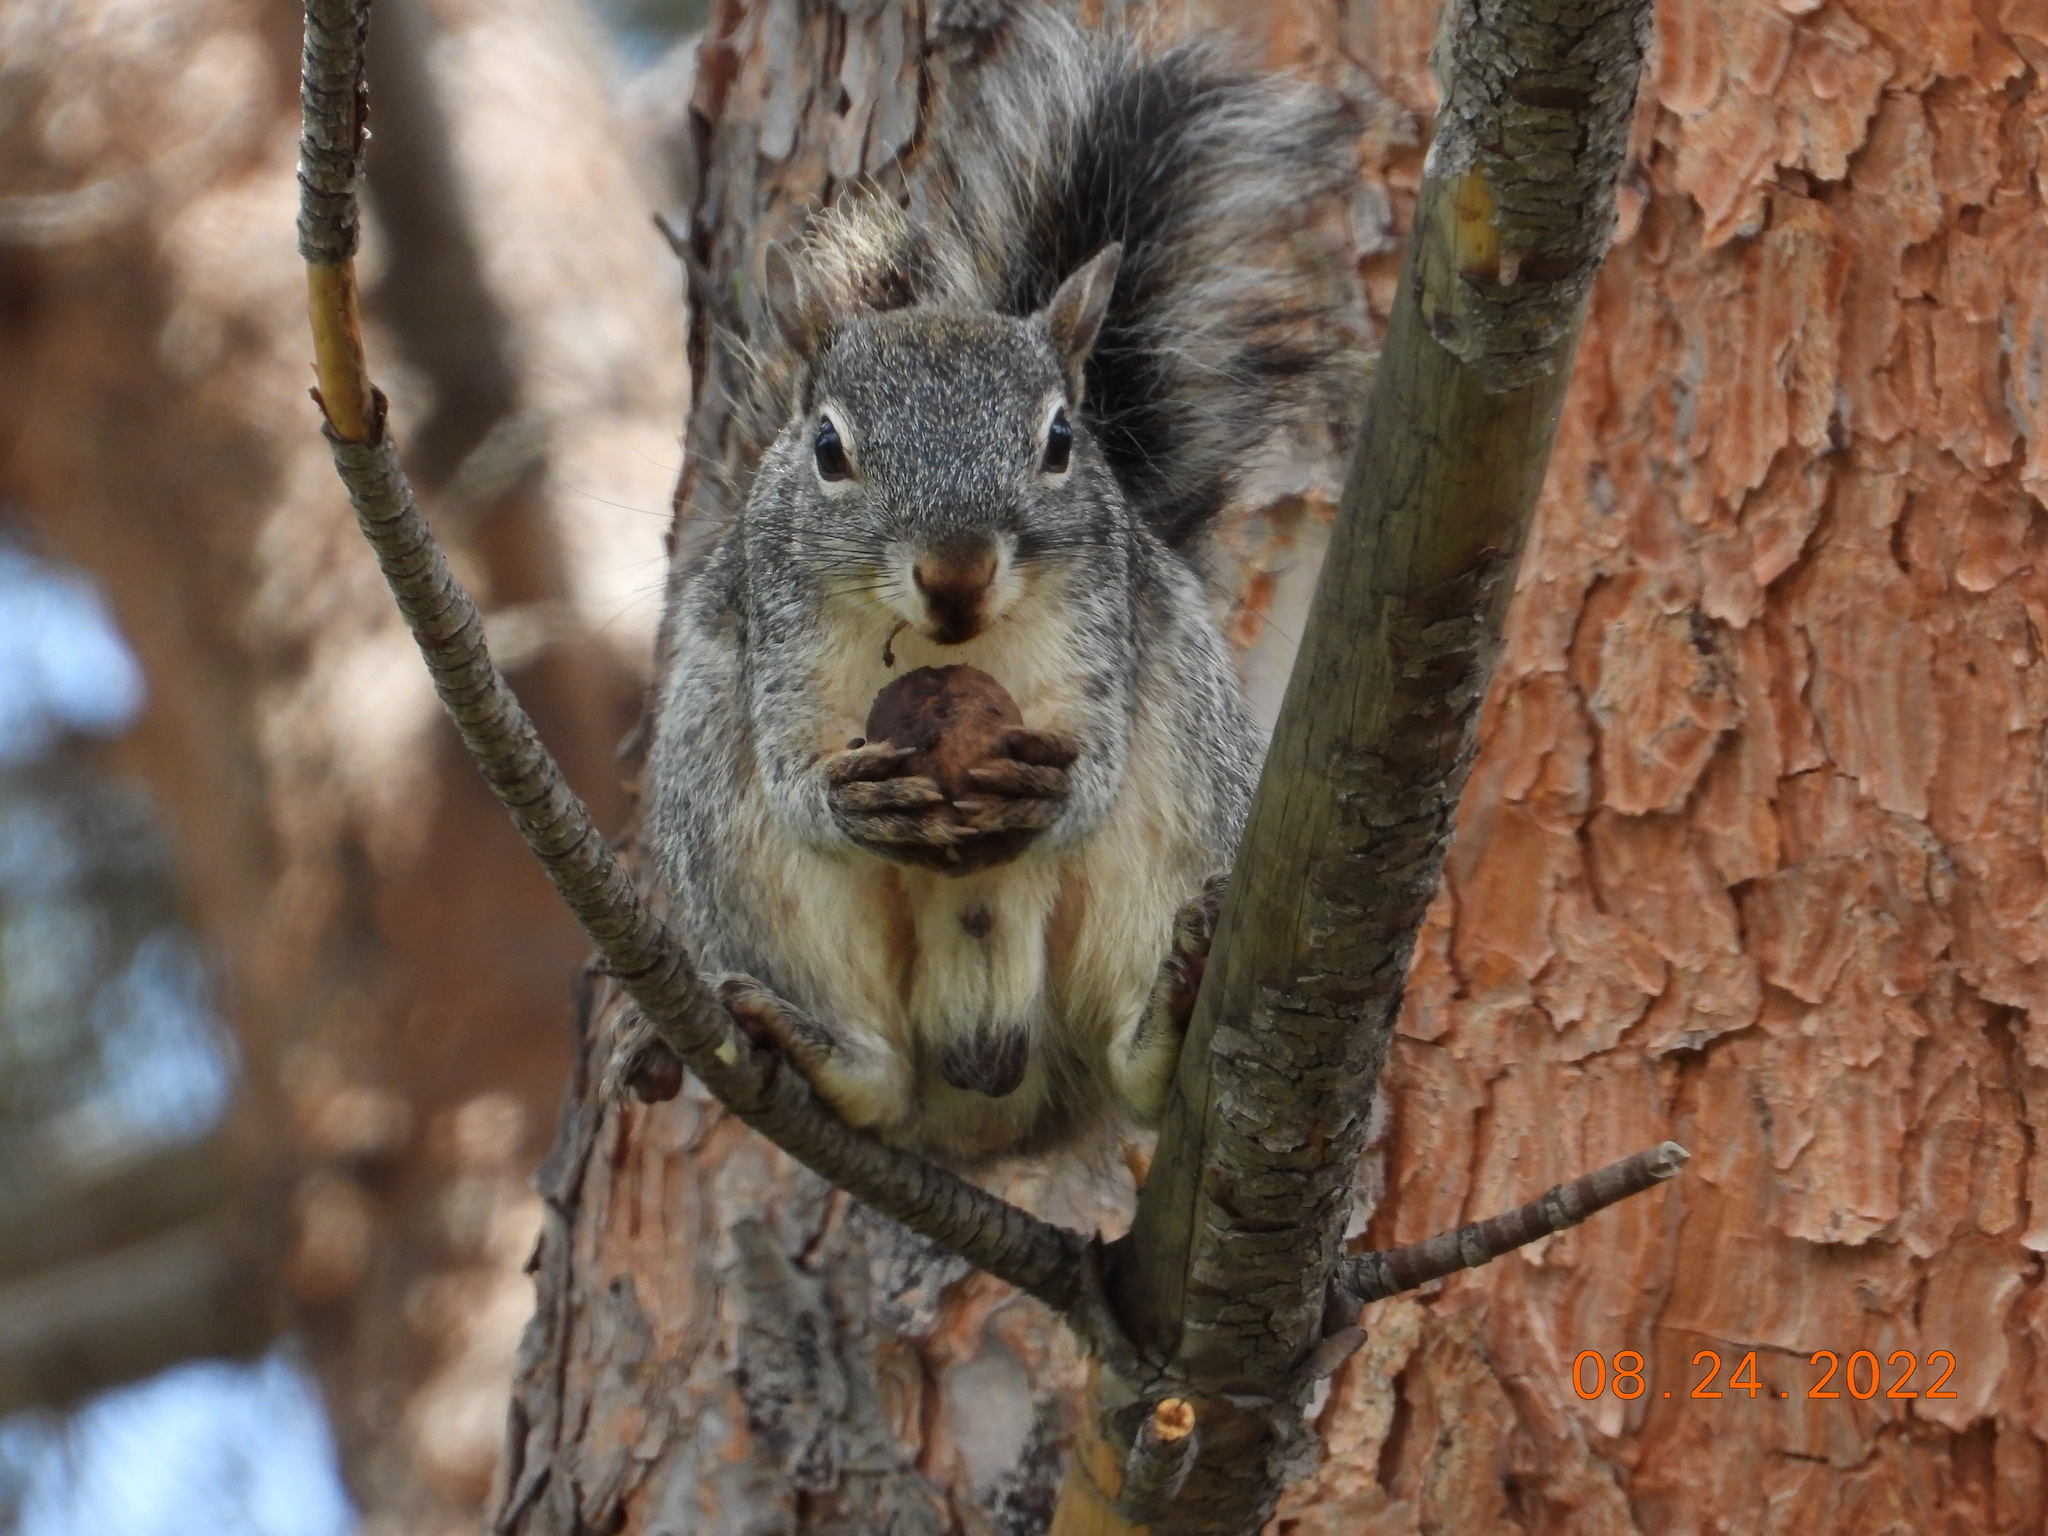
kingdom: Animalia
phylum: Chordata
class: Mammalia
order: Rodentia
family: Sciuridae
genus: Sciurus
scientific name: Sciurus arizonensis
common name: Arizona gray squirrel
